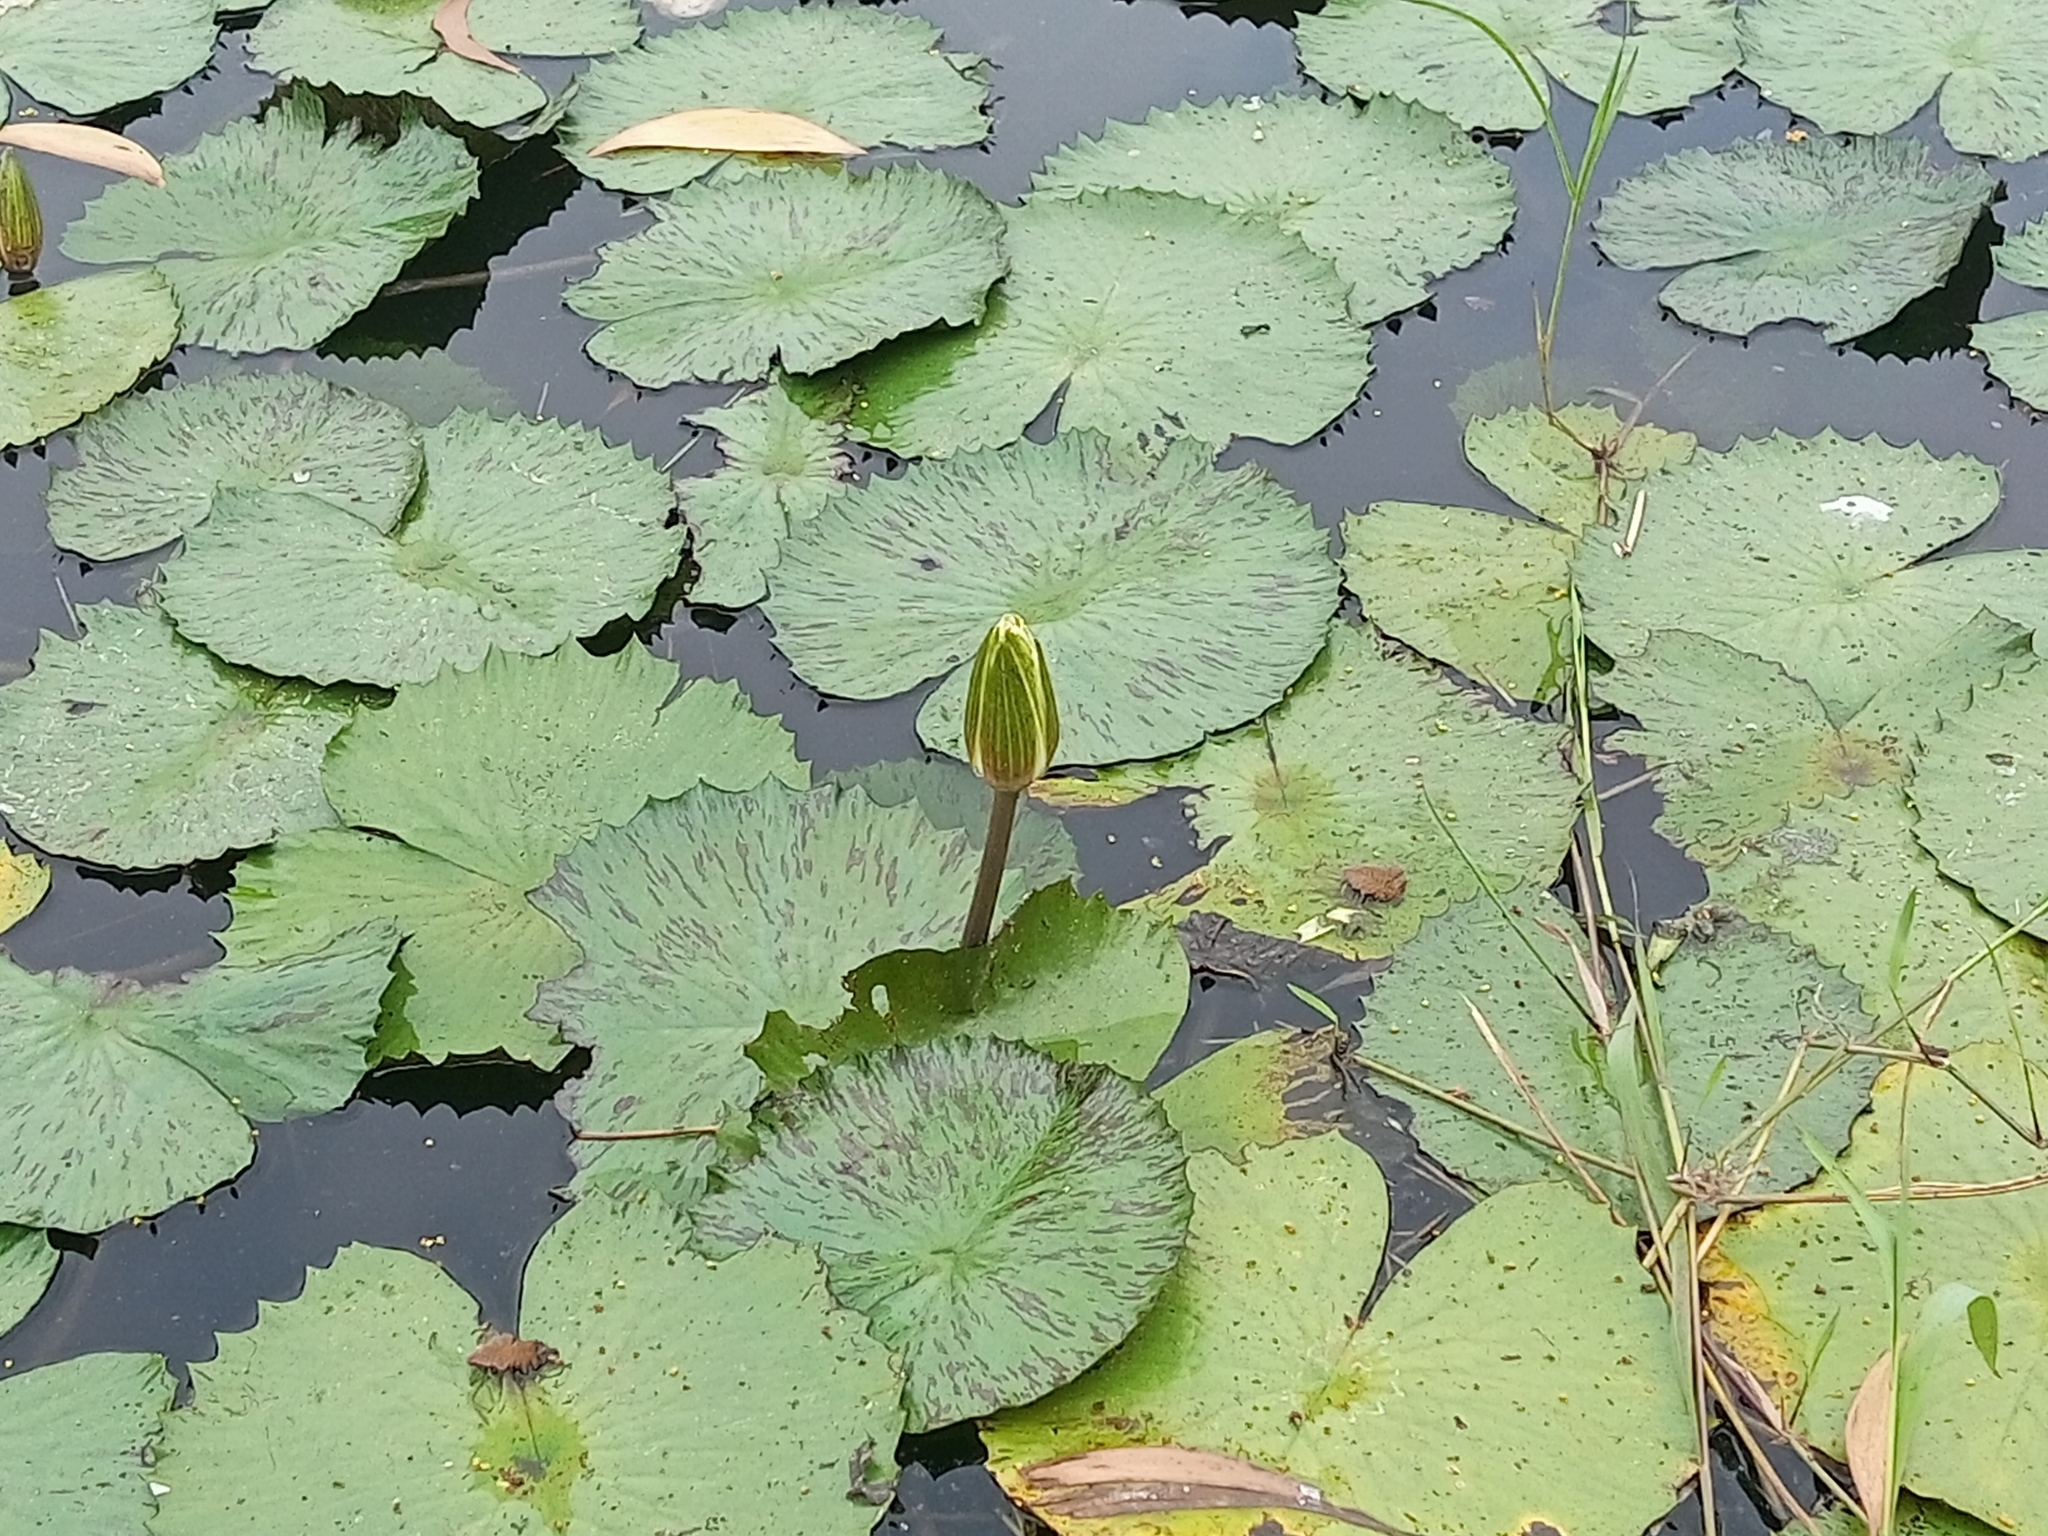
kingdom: Plantae
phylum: Tracheophyta
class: Magnoliopsida
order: Nymphaeales
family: Nymphaeaceae
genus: Nymphaea
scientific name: Nymphaea lotus
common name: White egyptian lotus
